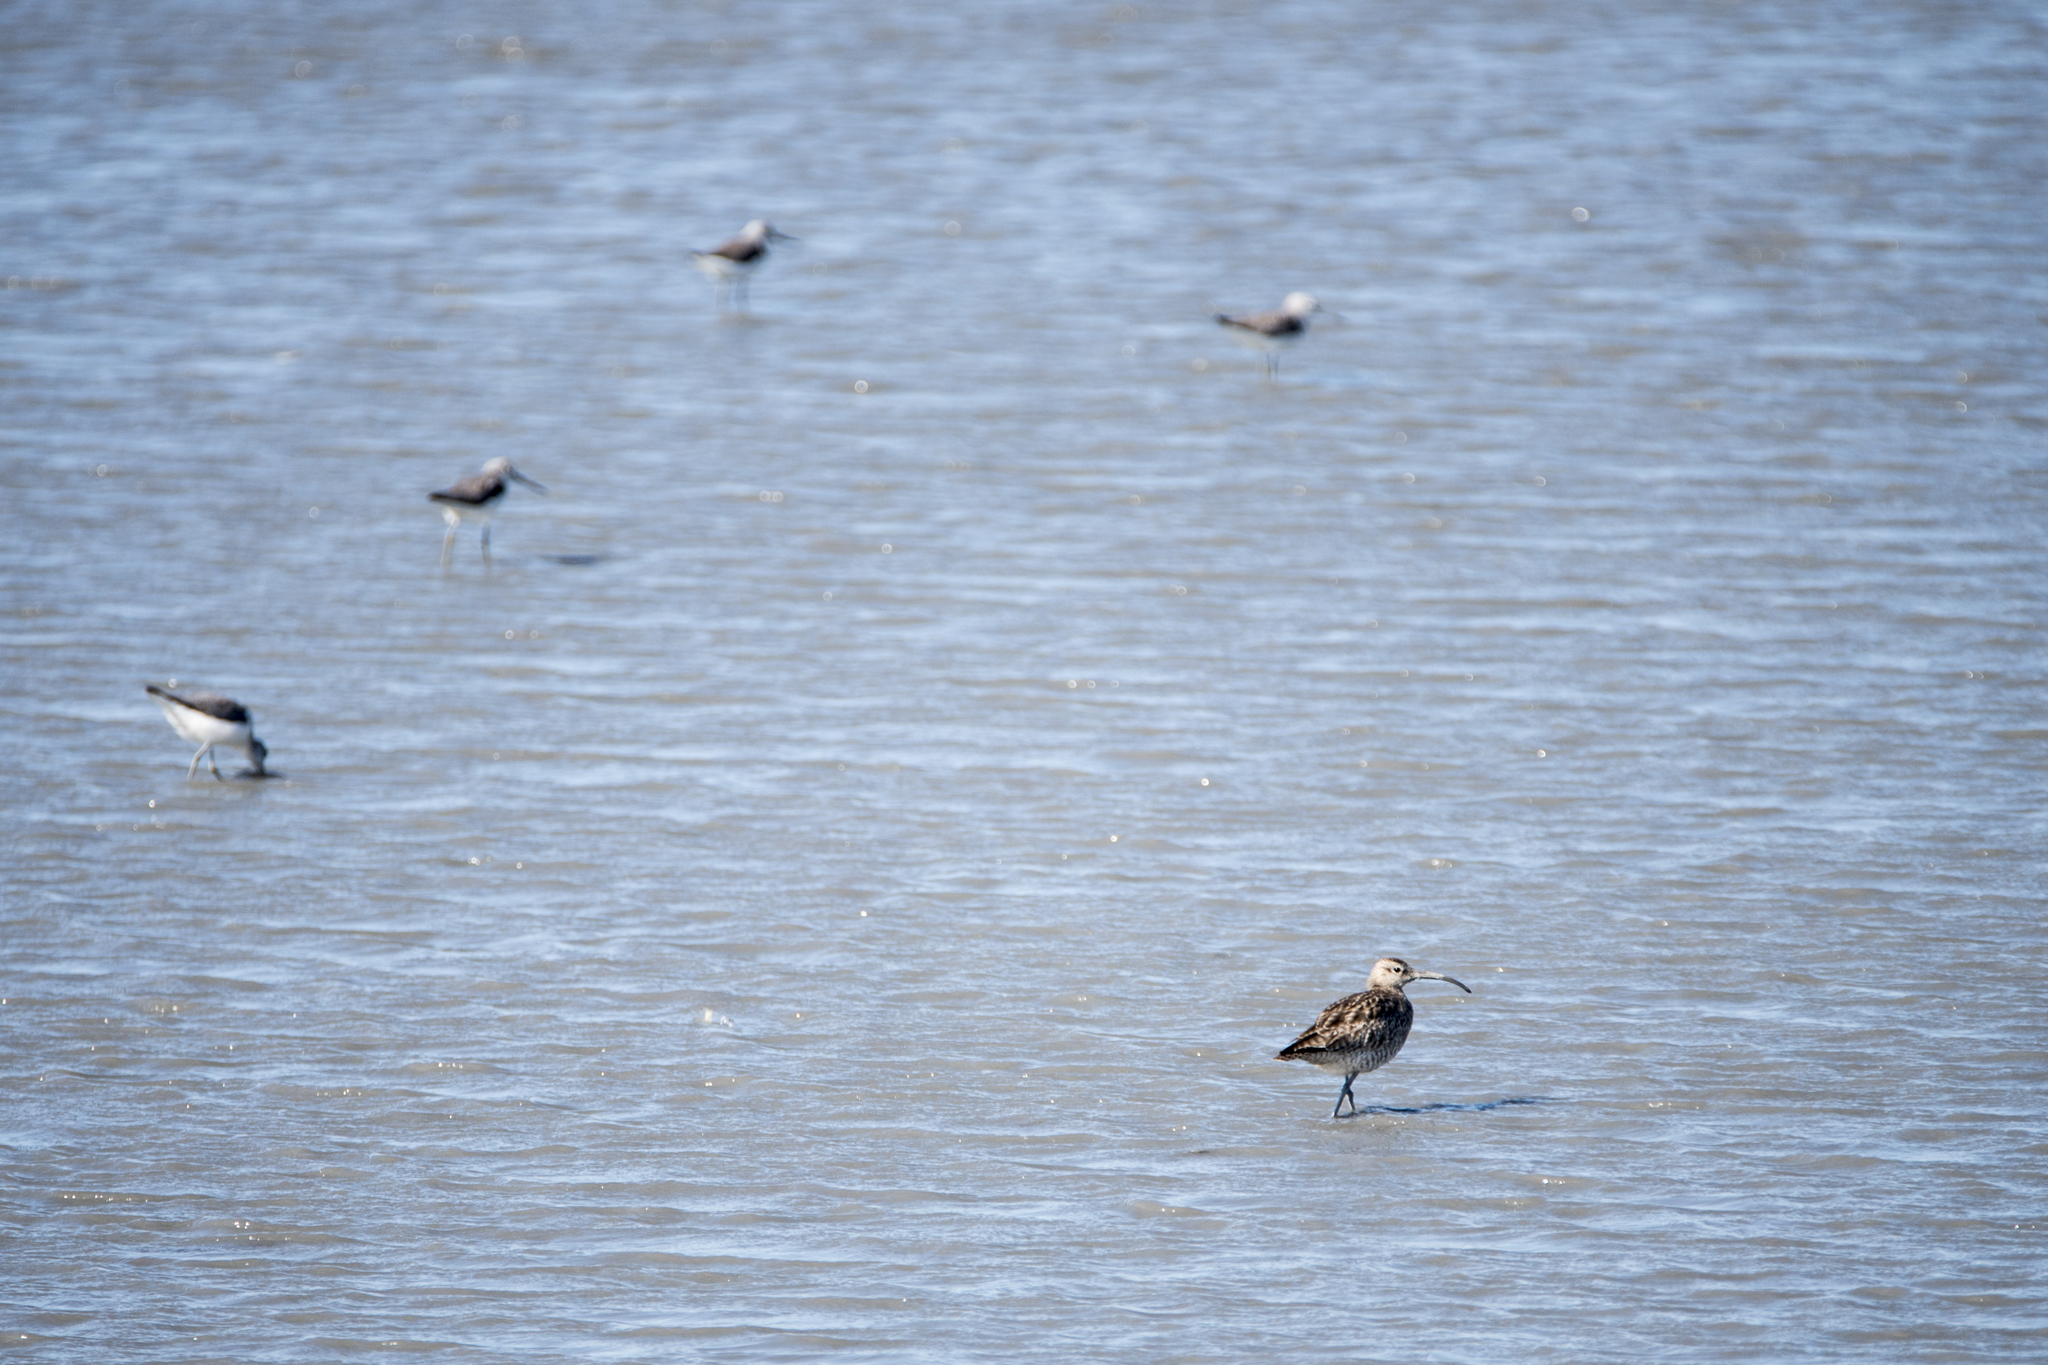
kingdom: Animalia
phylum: Chordata
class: Aves
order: Charadriiformes
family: Scolopacidae
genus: Numenius
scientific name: Numenius phaeopus
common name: Whimbrel
